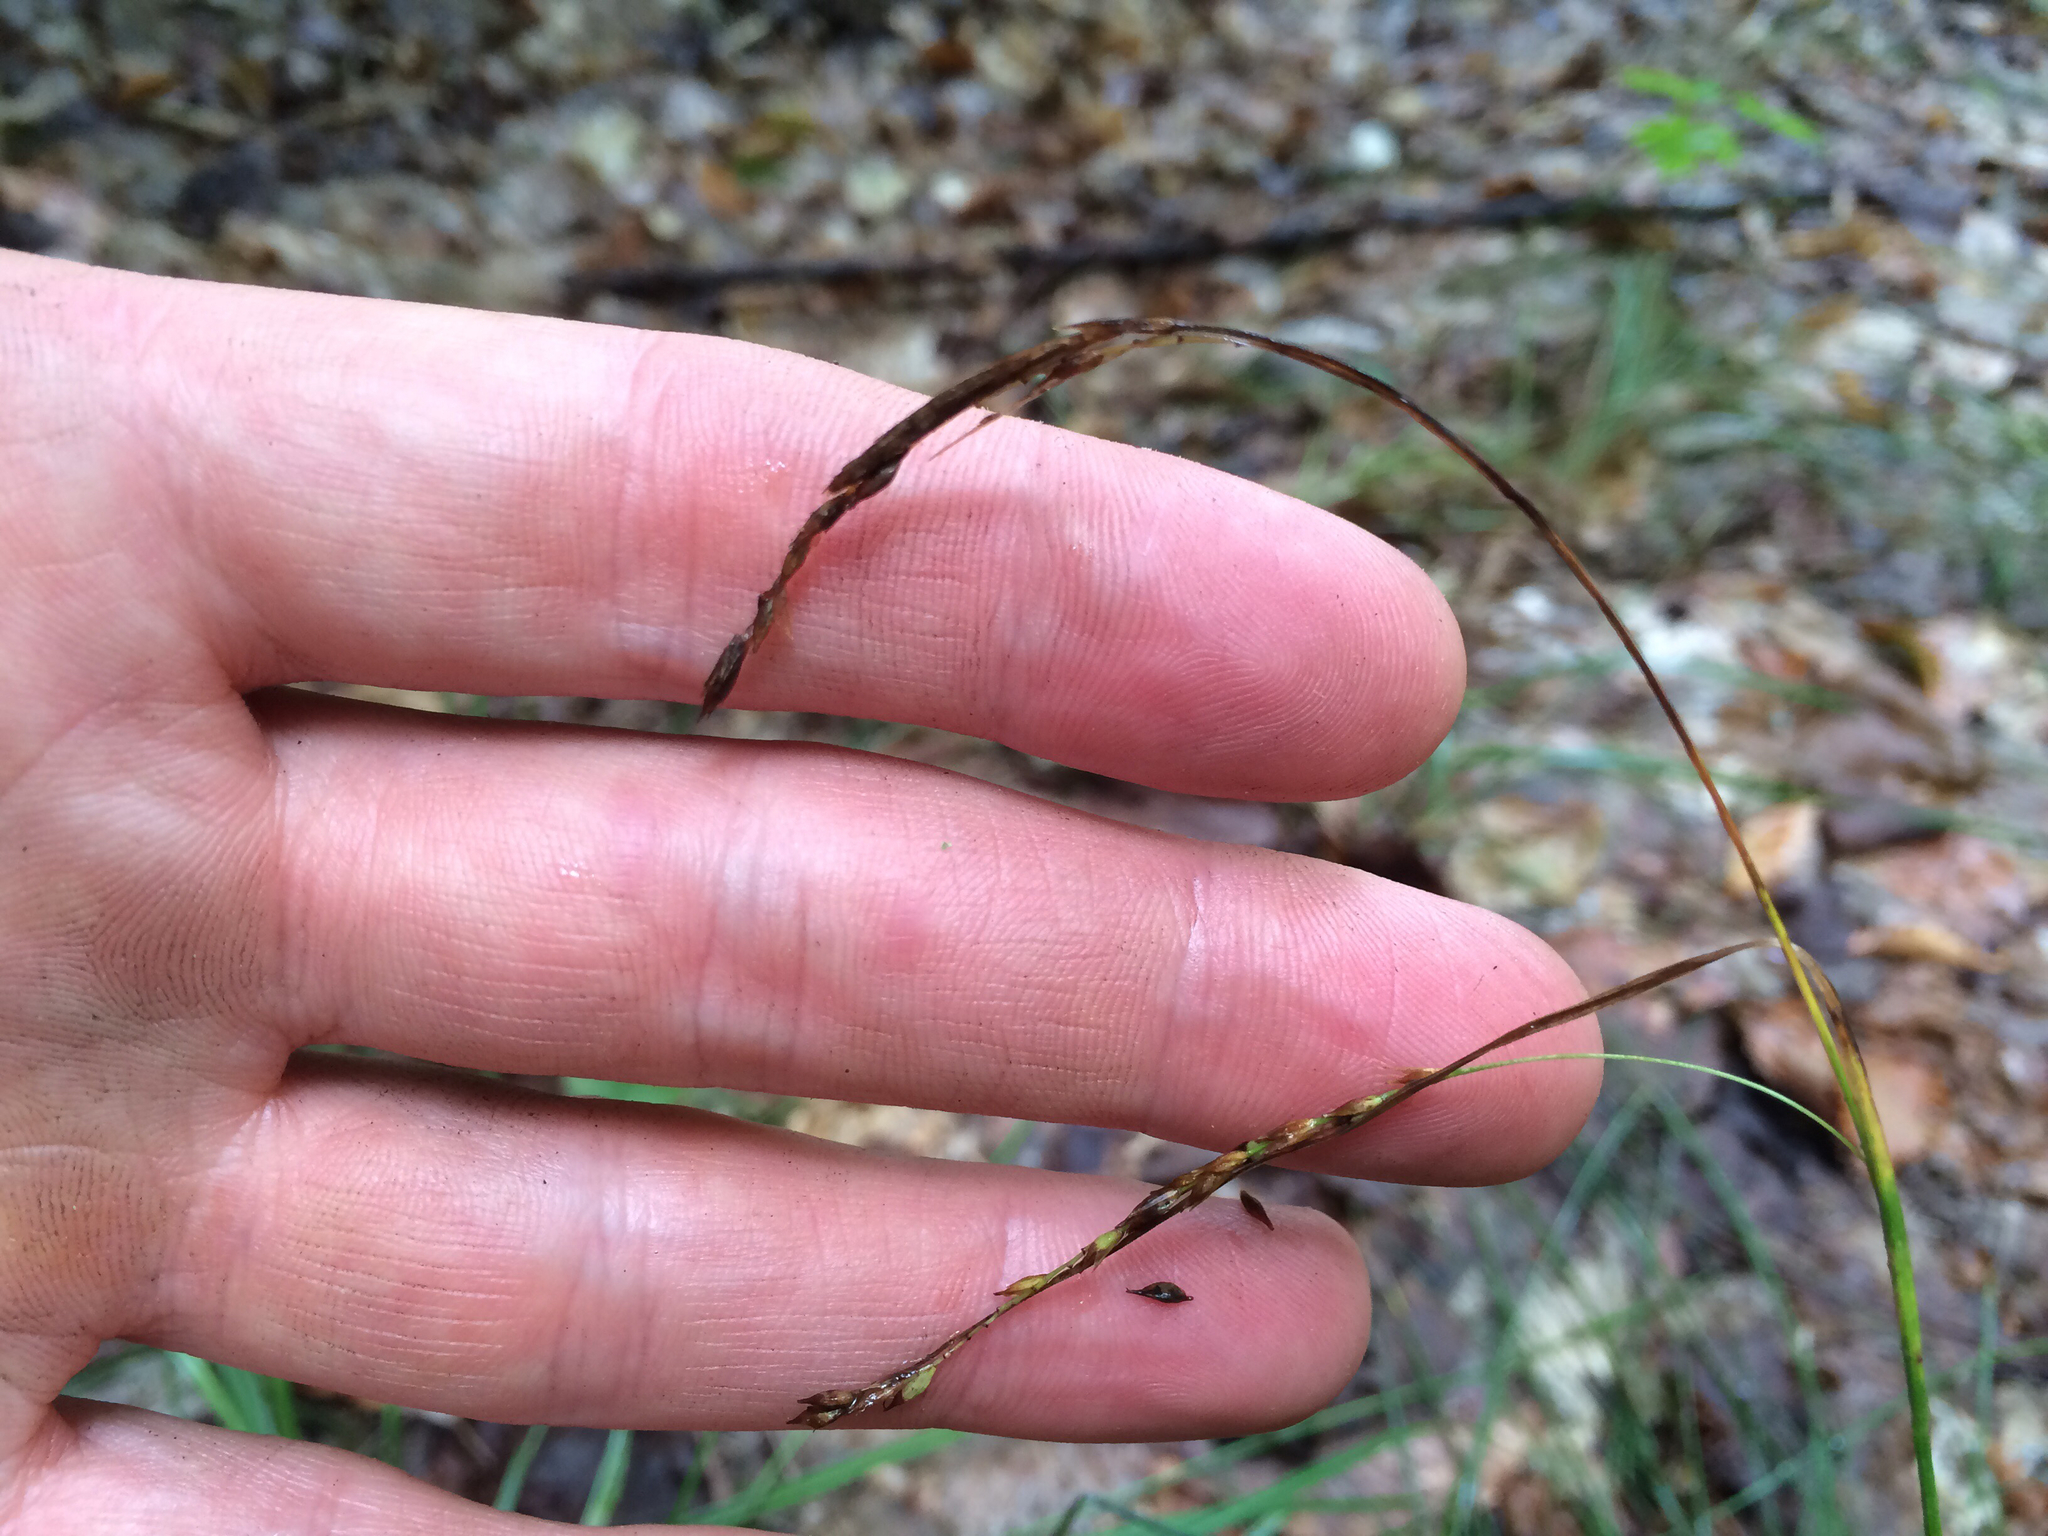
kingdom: Plantae
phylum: Tracheophyta
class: Liliopsida
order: Poales
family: Cyperaceae
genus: Carex
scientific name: Carex arctata
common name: Black sedge
